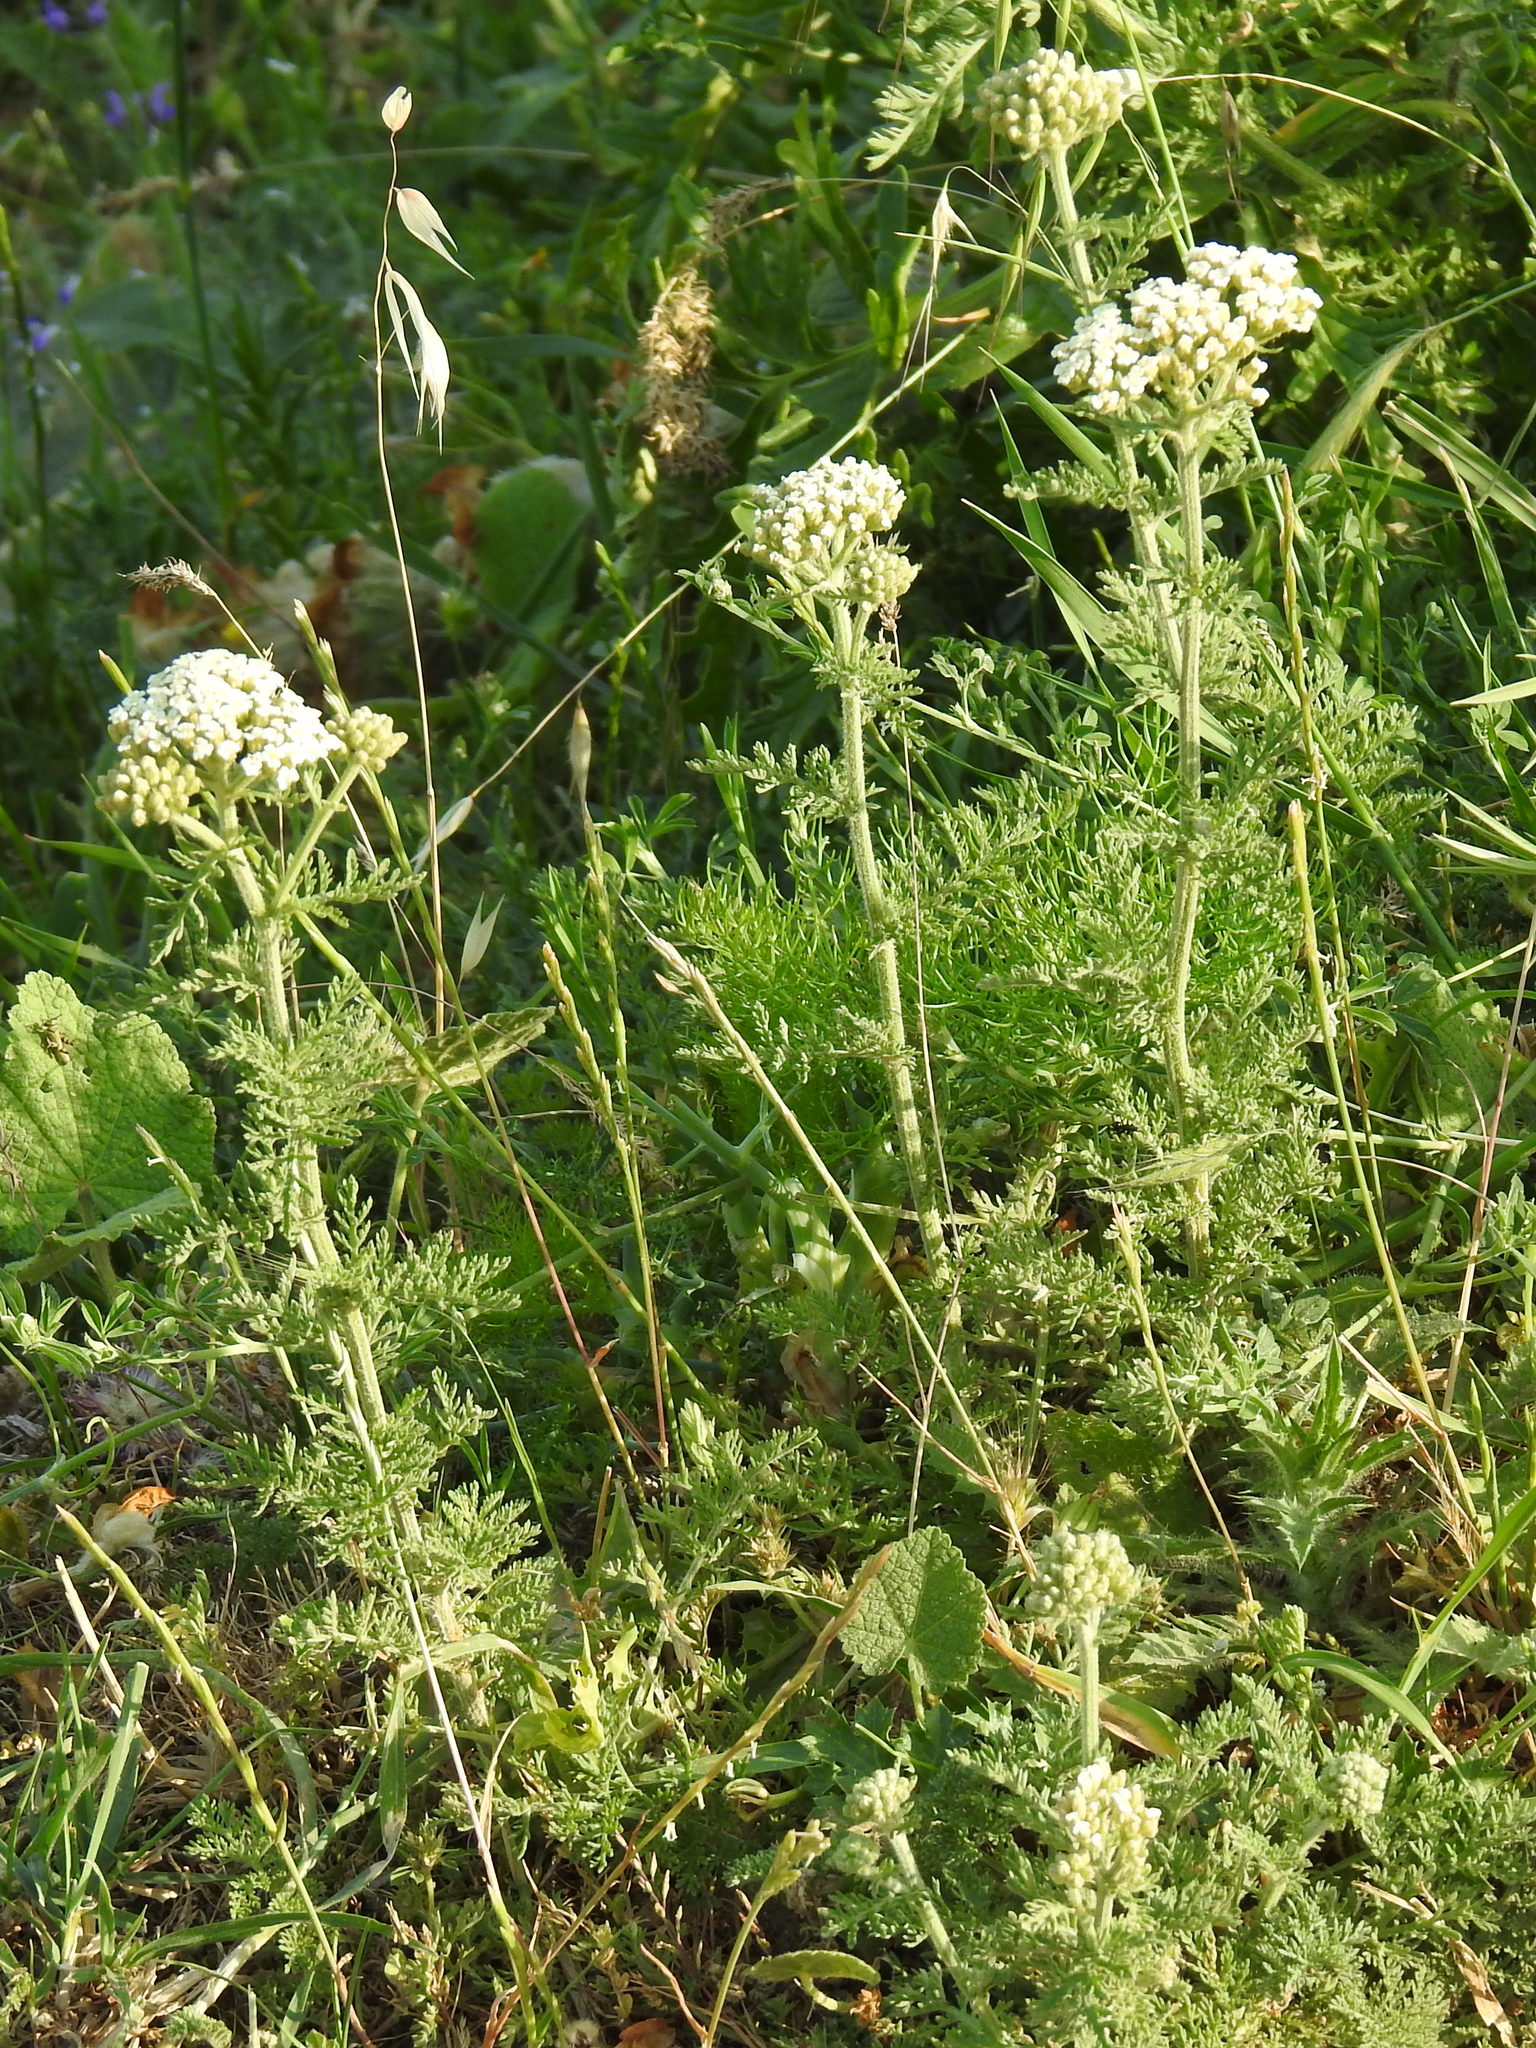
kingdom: Plantae
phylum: Tracheophyta
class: Magnoliopsida
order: Asterales
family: Asteraceae
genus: Achillea
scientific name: Achillea nobilis
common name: Noble yarrow
